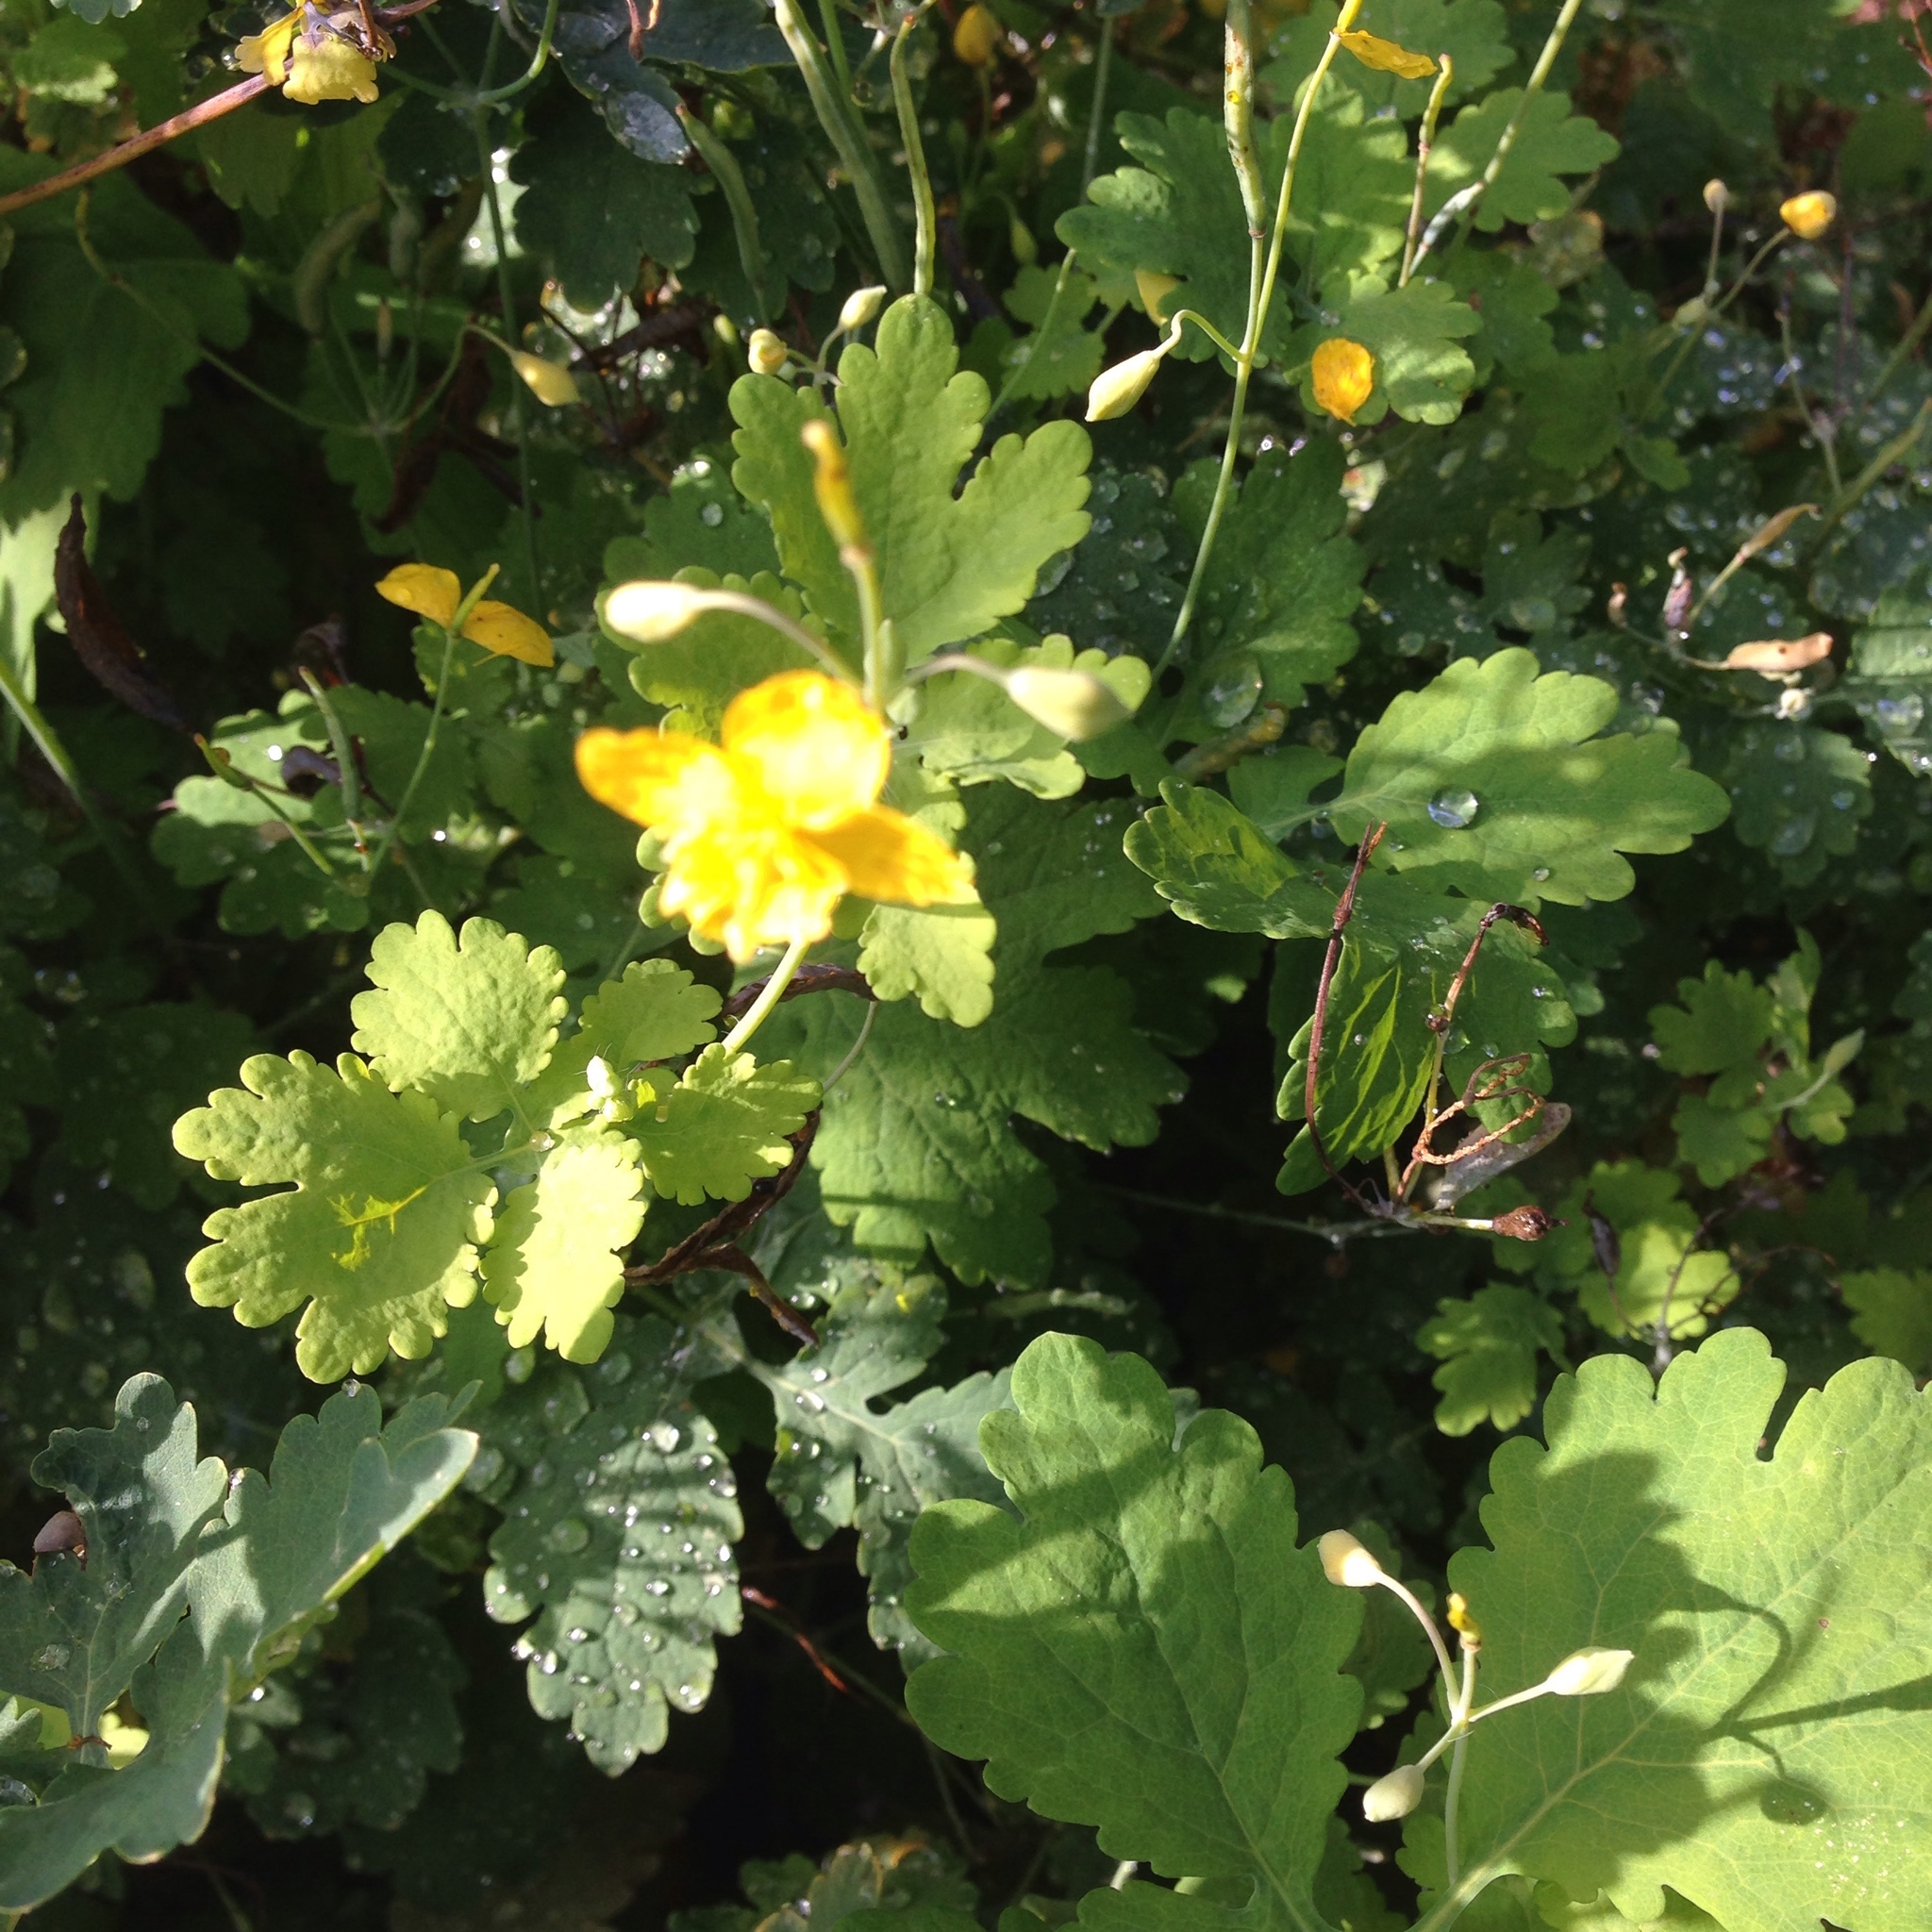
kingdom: Plantae
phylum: Tracheophyta
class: Magnoliopsida
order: Ranunculales
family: Papaveraceae
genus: Chelidonium
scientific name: Chelidonium majus
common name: Greater celandine
